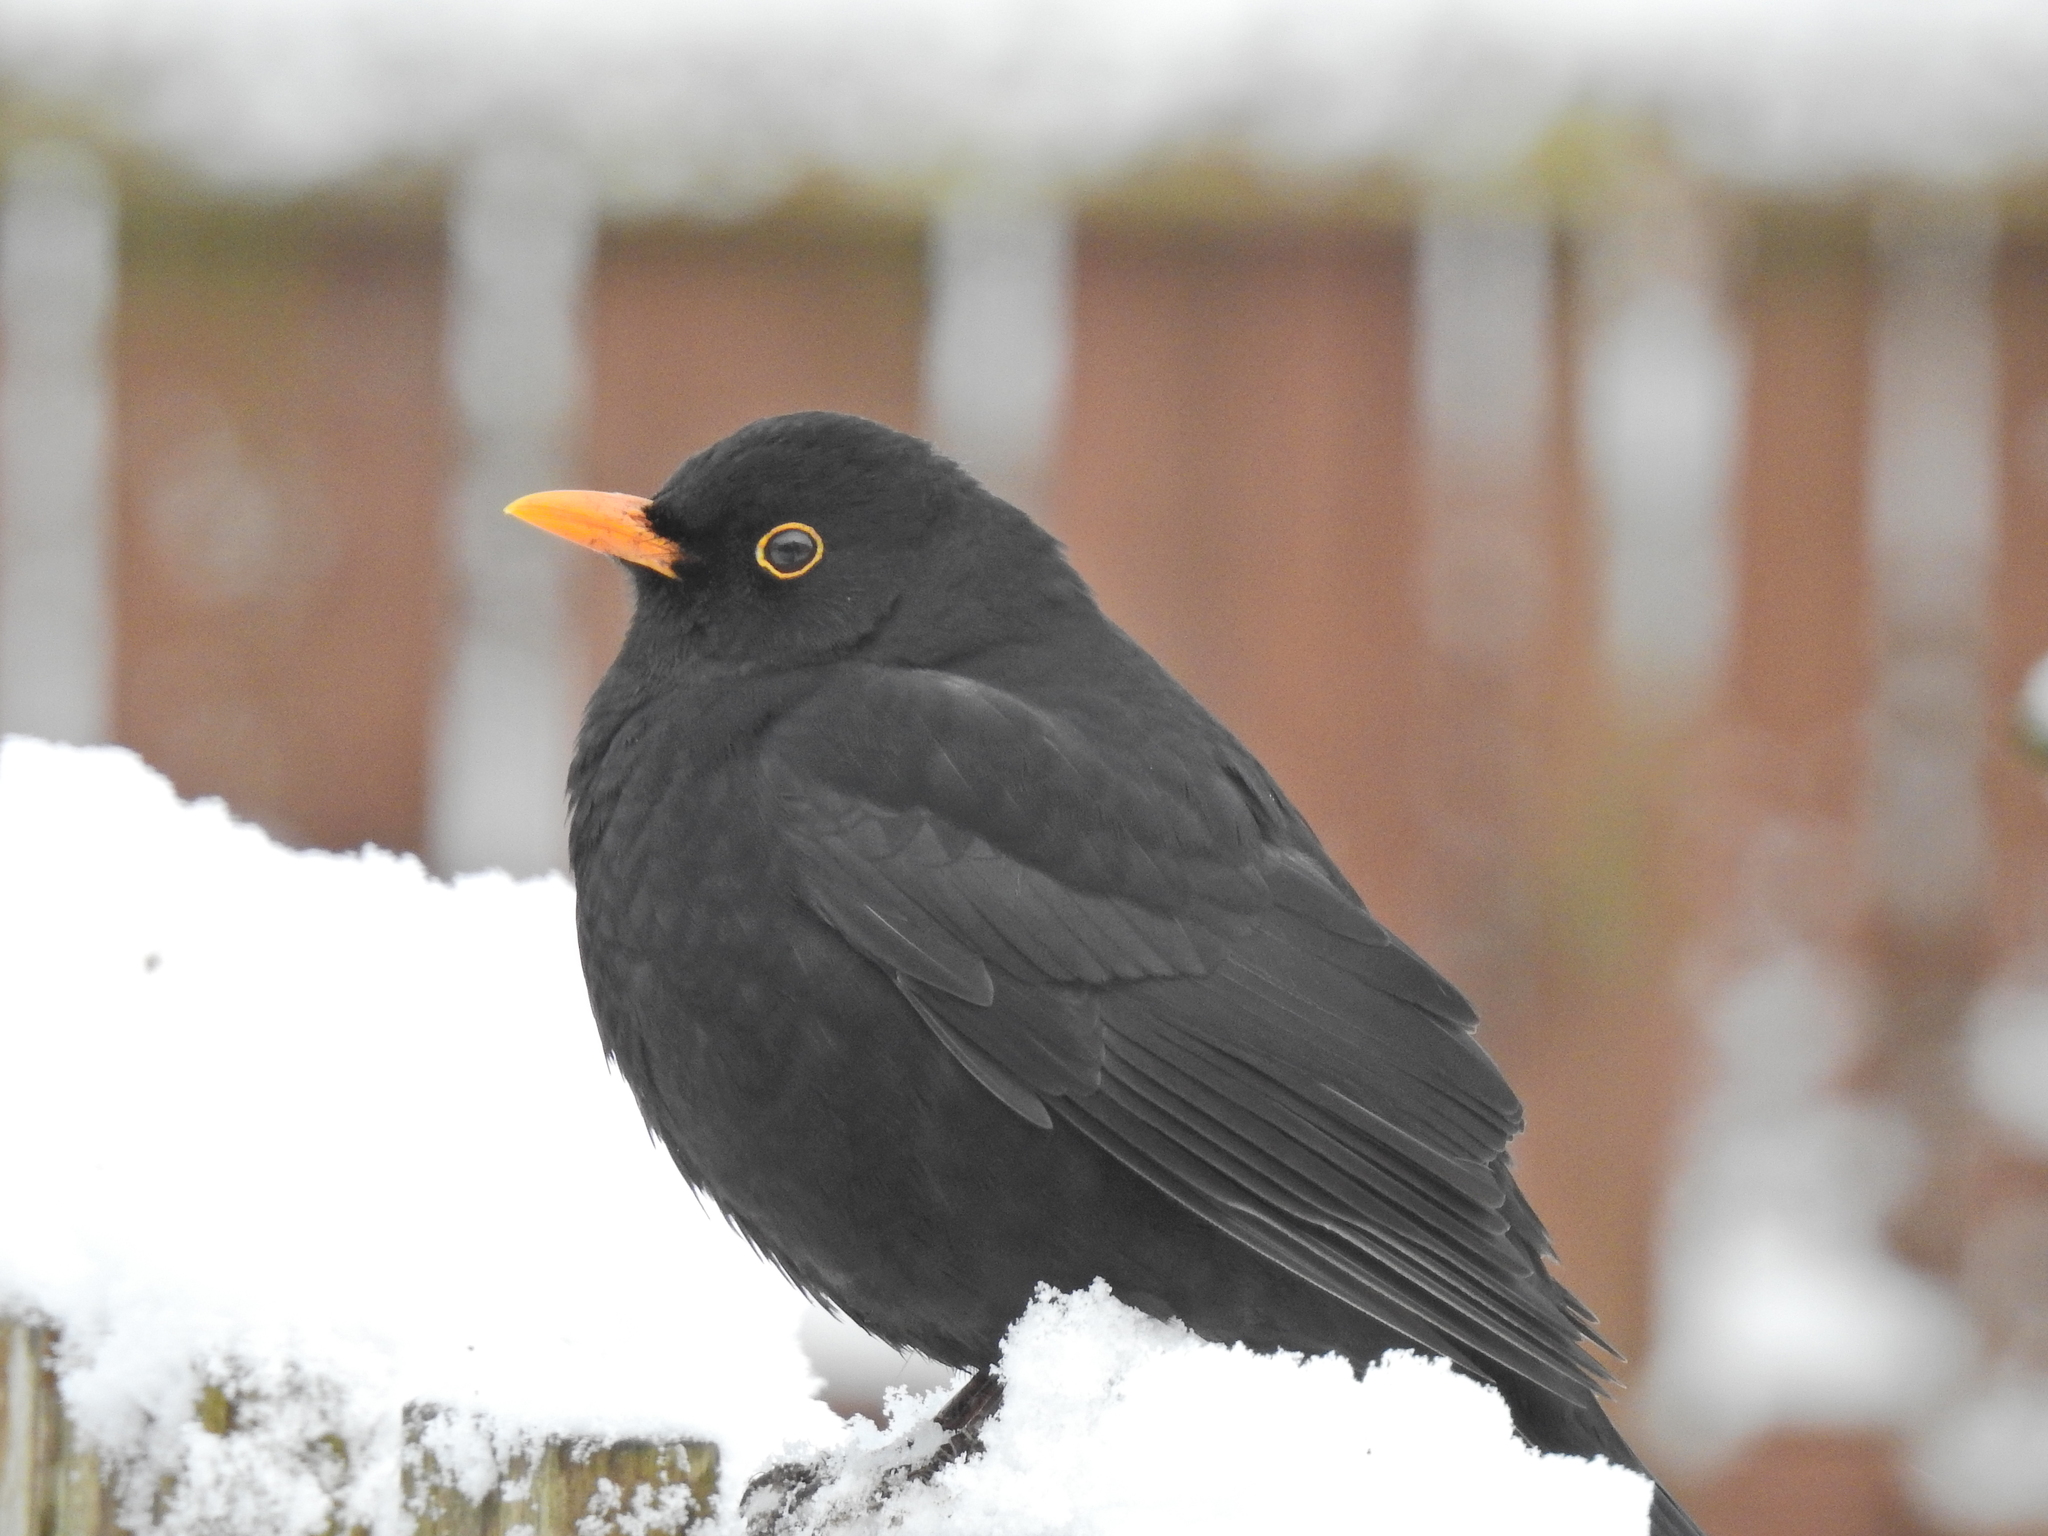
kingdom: Animalia
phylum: Chordata
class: Aves
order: Passeriformes
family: Turdidae
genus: Turdus
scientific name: Turdus merula
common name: Common blackbird
